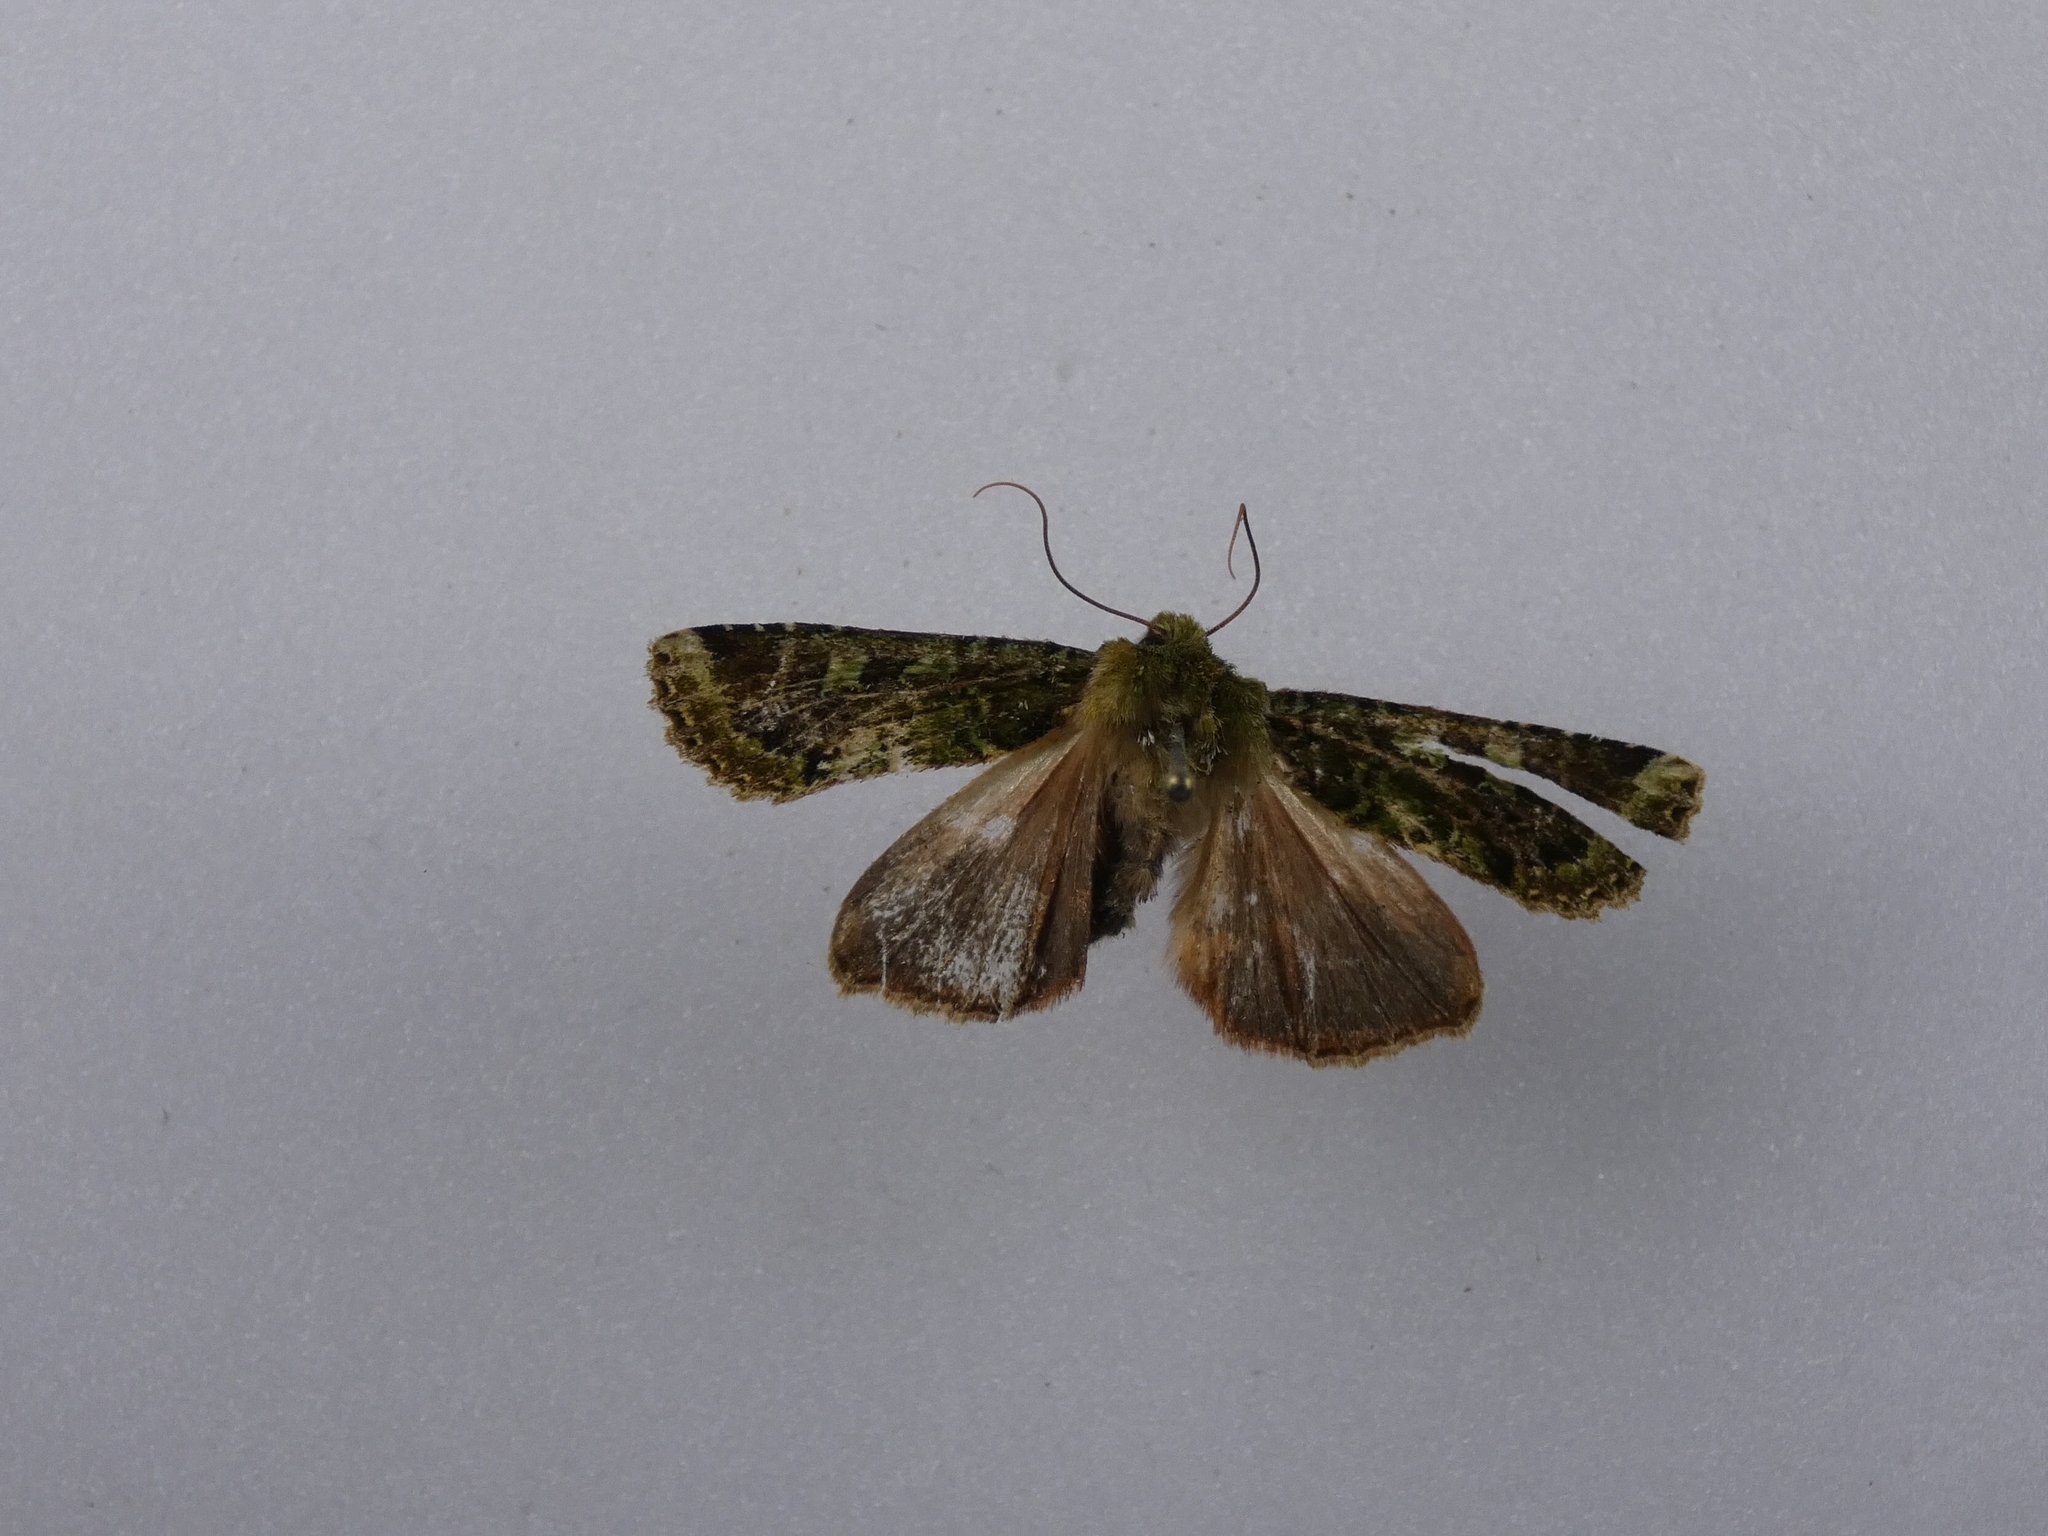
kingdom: Animalia
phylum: Arthropoda
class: Insecta
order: Lepidoptera
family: Noctuidae
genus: Feredayia
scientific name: Feredayia grammosa
